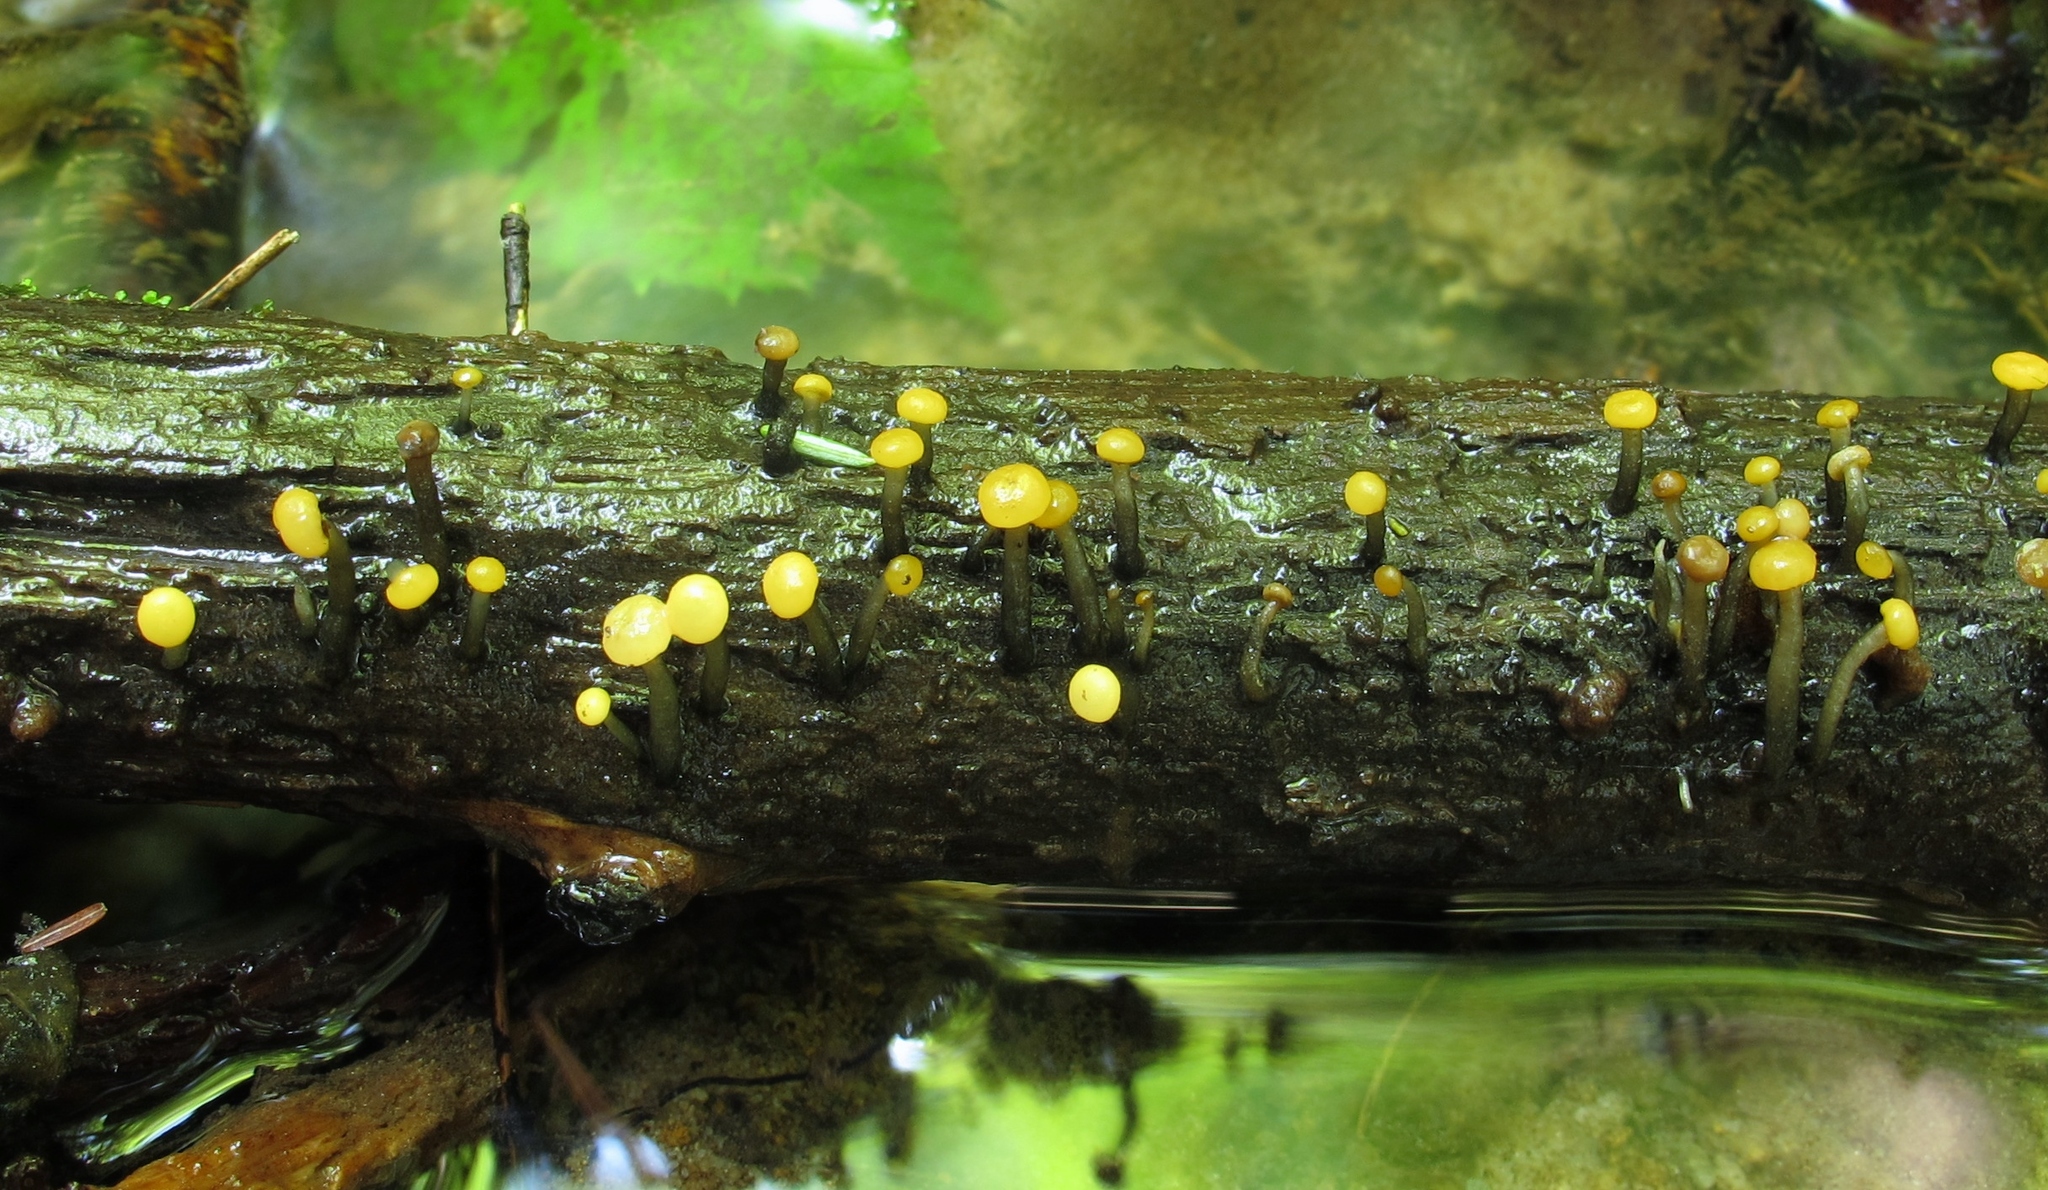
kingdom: Fungi
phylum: Ascomycota
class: Leotiomycetes
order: Helotiales
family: Vibrisseaceae
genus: Vibrissea
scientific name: Vibrissea truncorum
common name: Stream beacon
